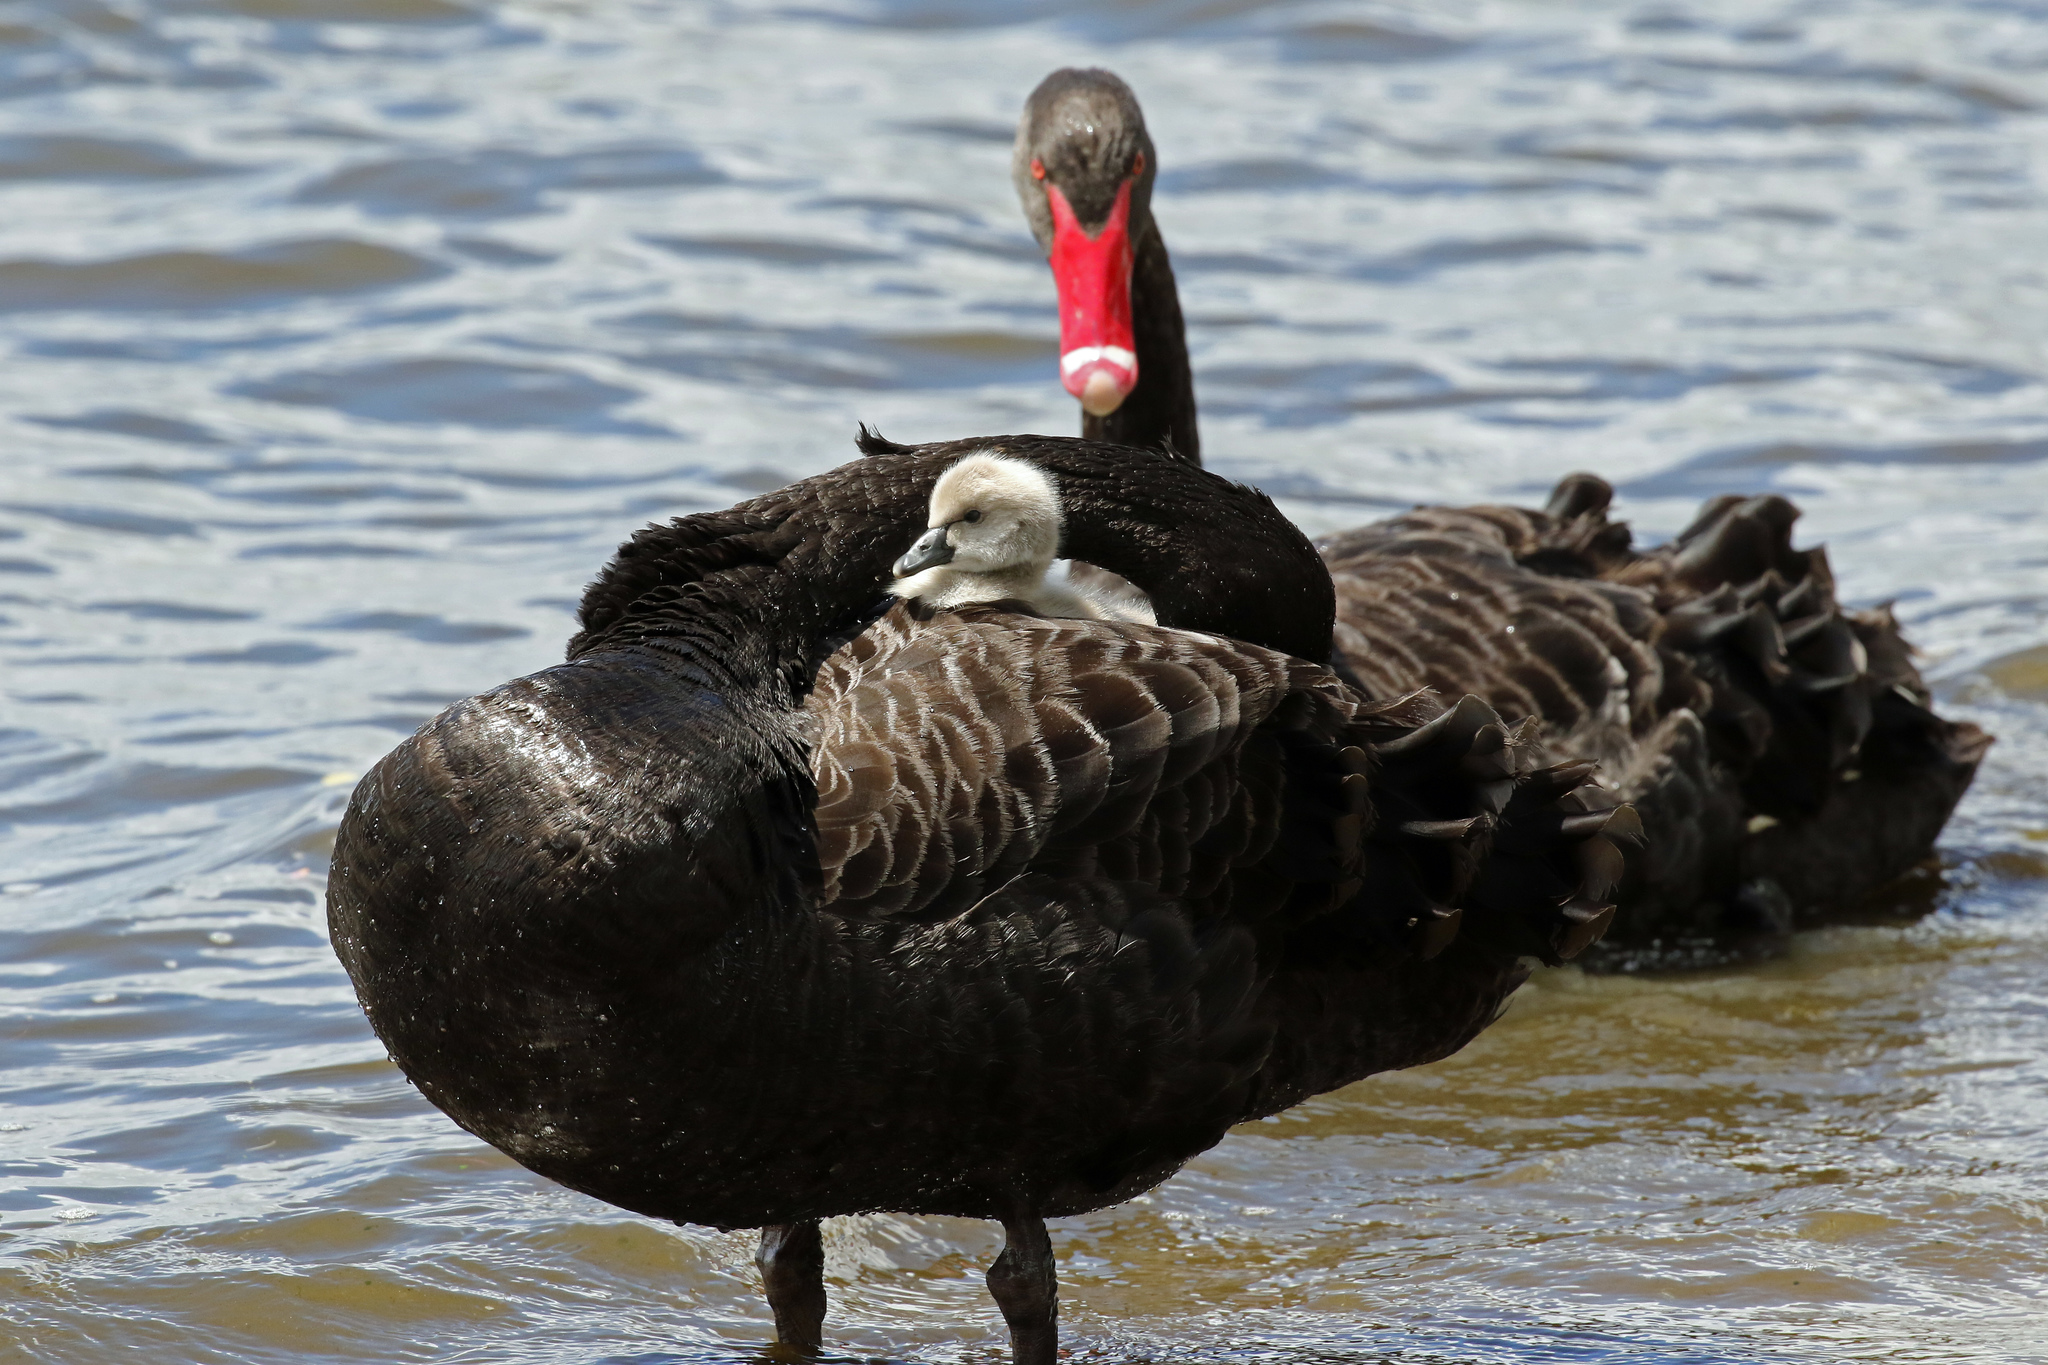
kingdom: Animalia
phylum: Chordata
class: Aves
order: Anseriformes
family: Anatidae
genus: Cygnus
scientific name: Cygnus atratus
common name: Black swan
